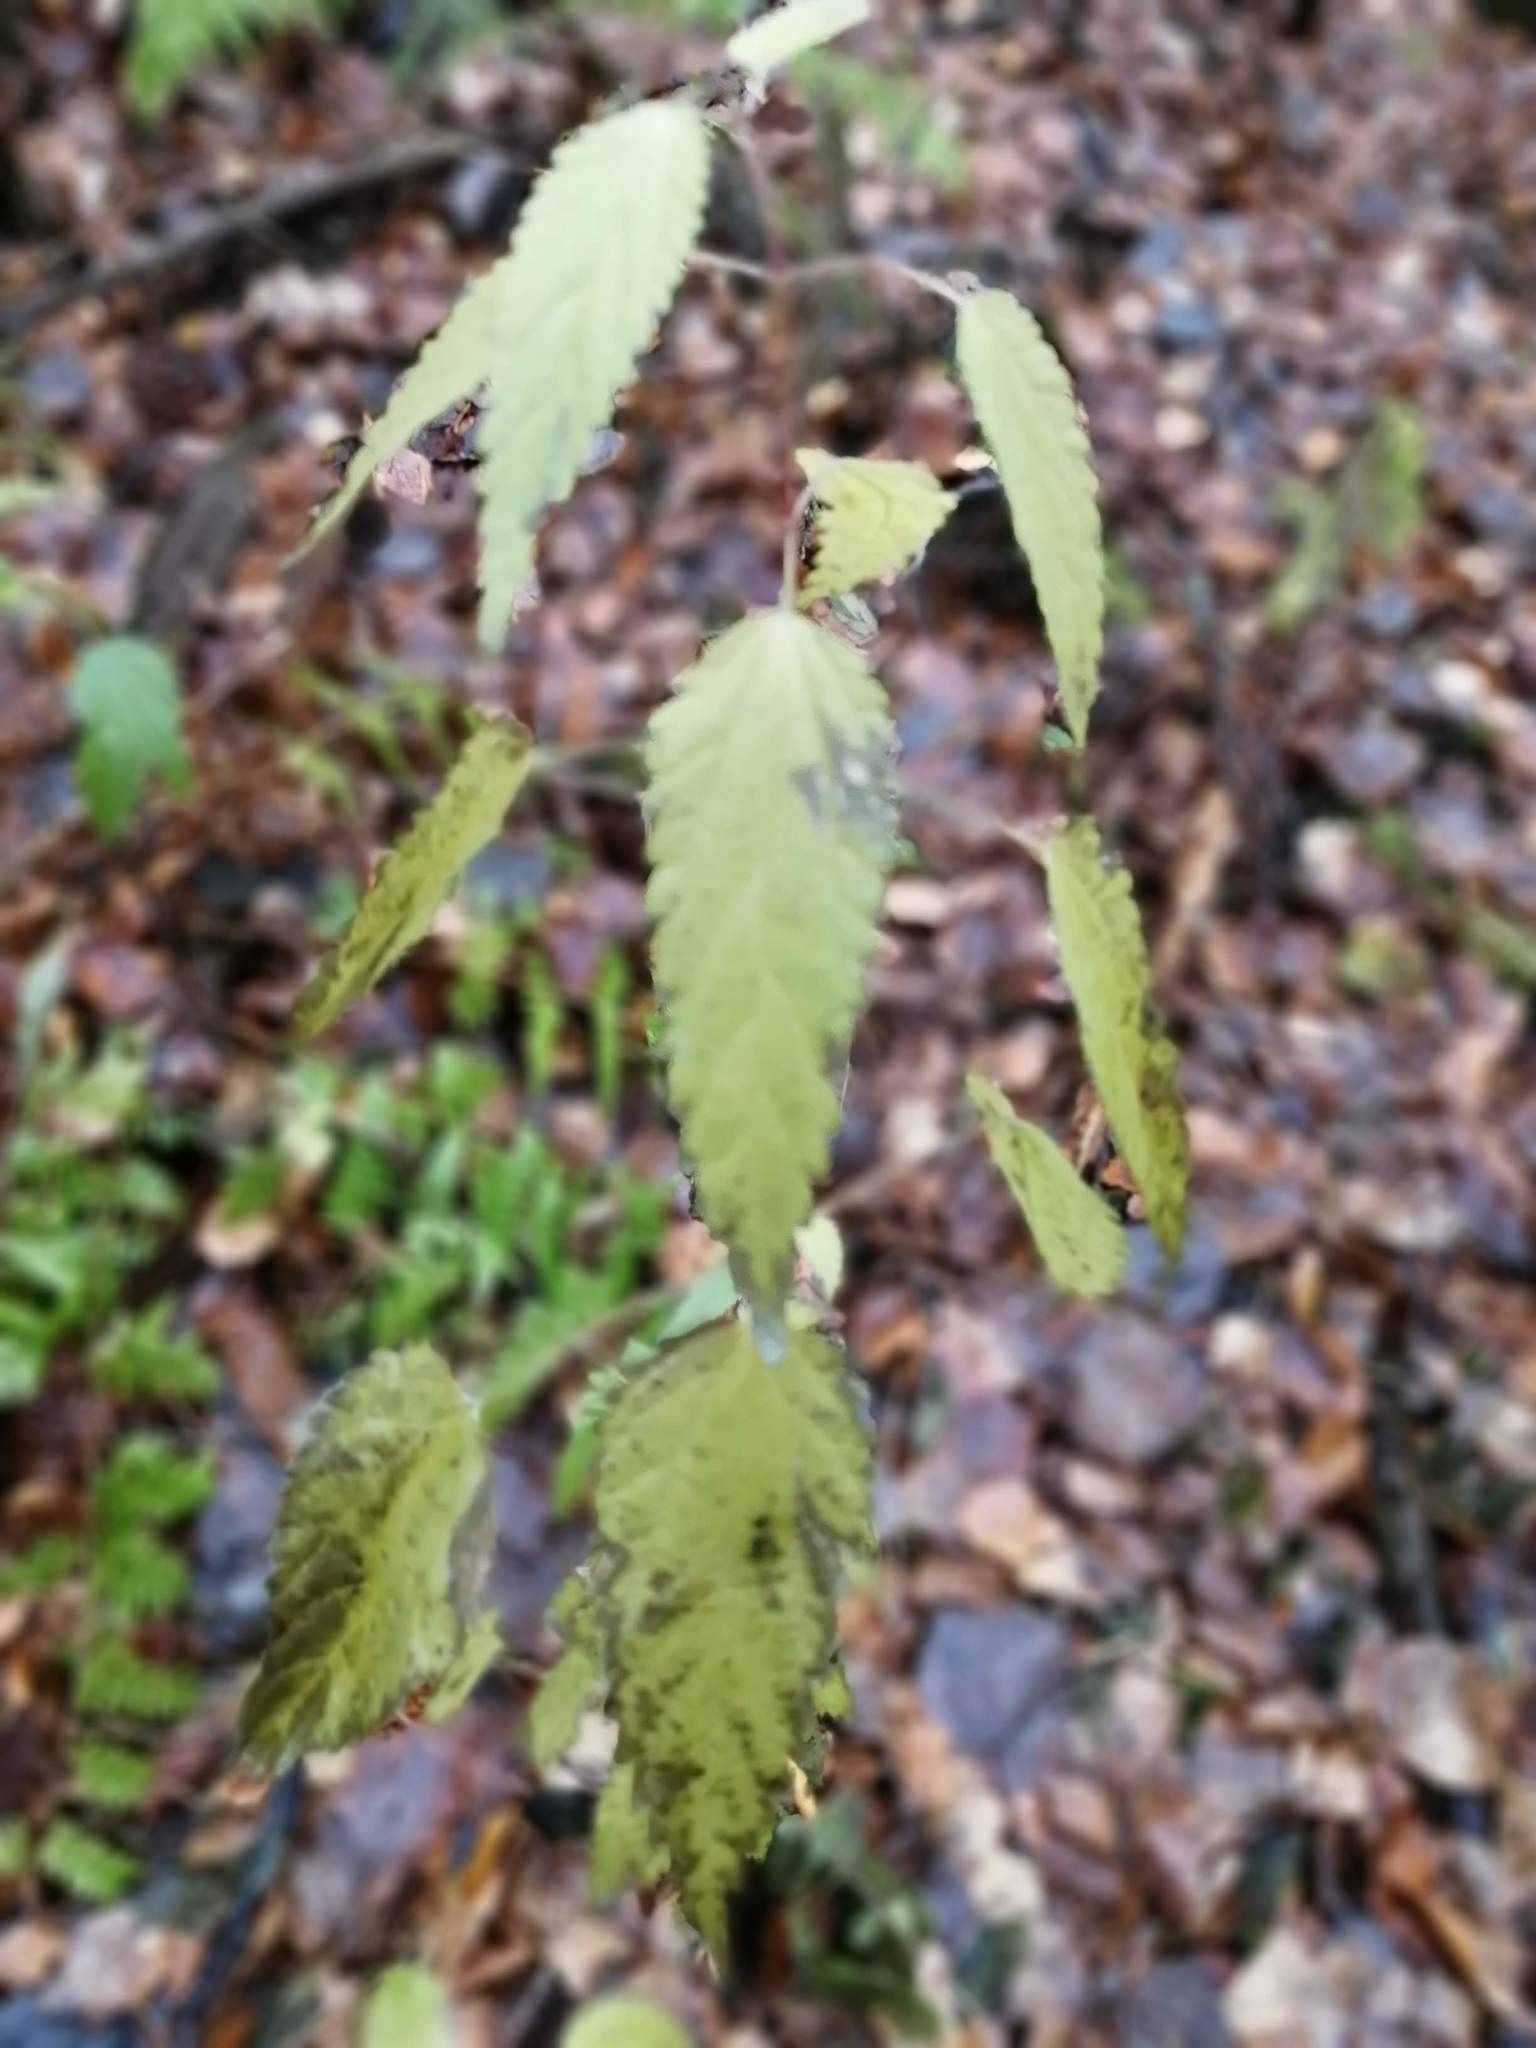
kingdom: Plantae
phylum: Tracheophyta
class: Magnoliopsida
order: Rosales
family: Urticaceae
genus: Urtica
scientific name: Urtica dioica
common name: Common nettle
